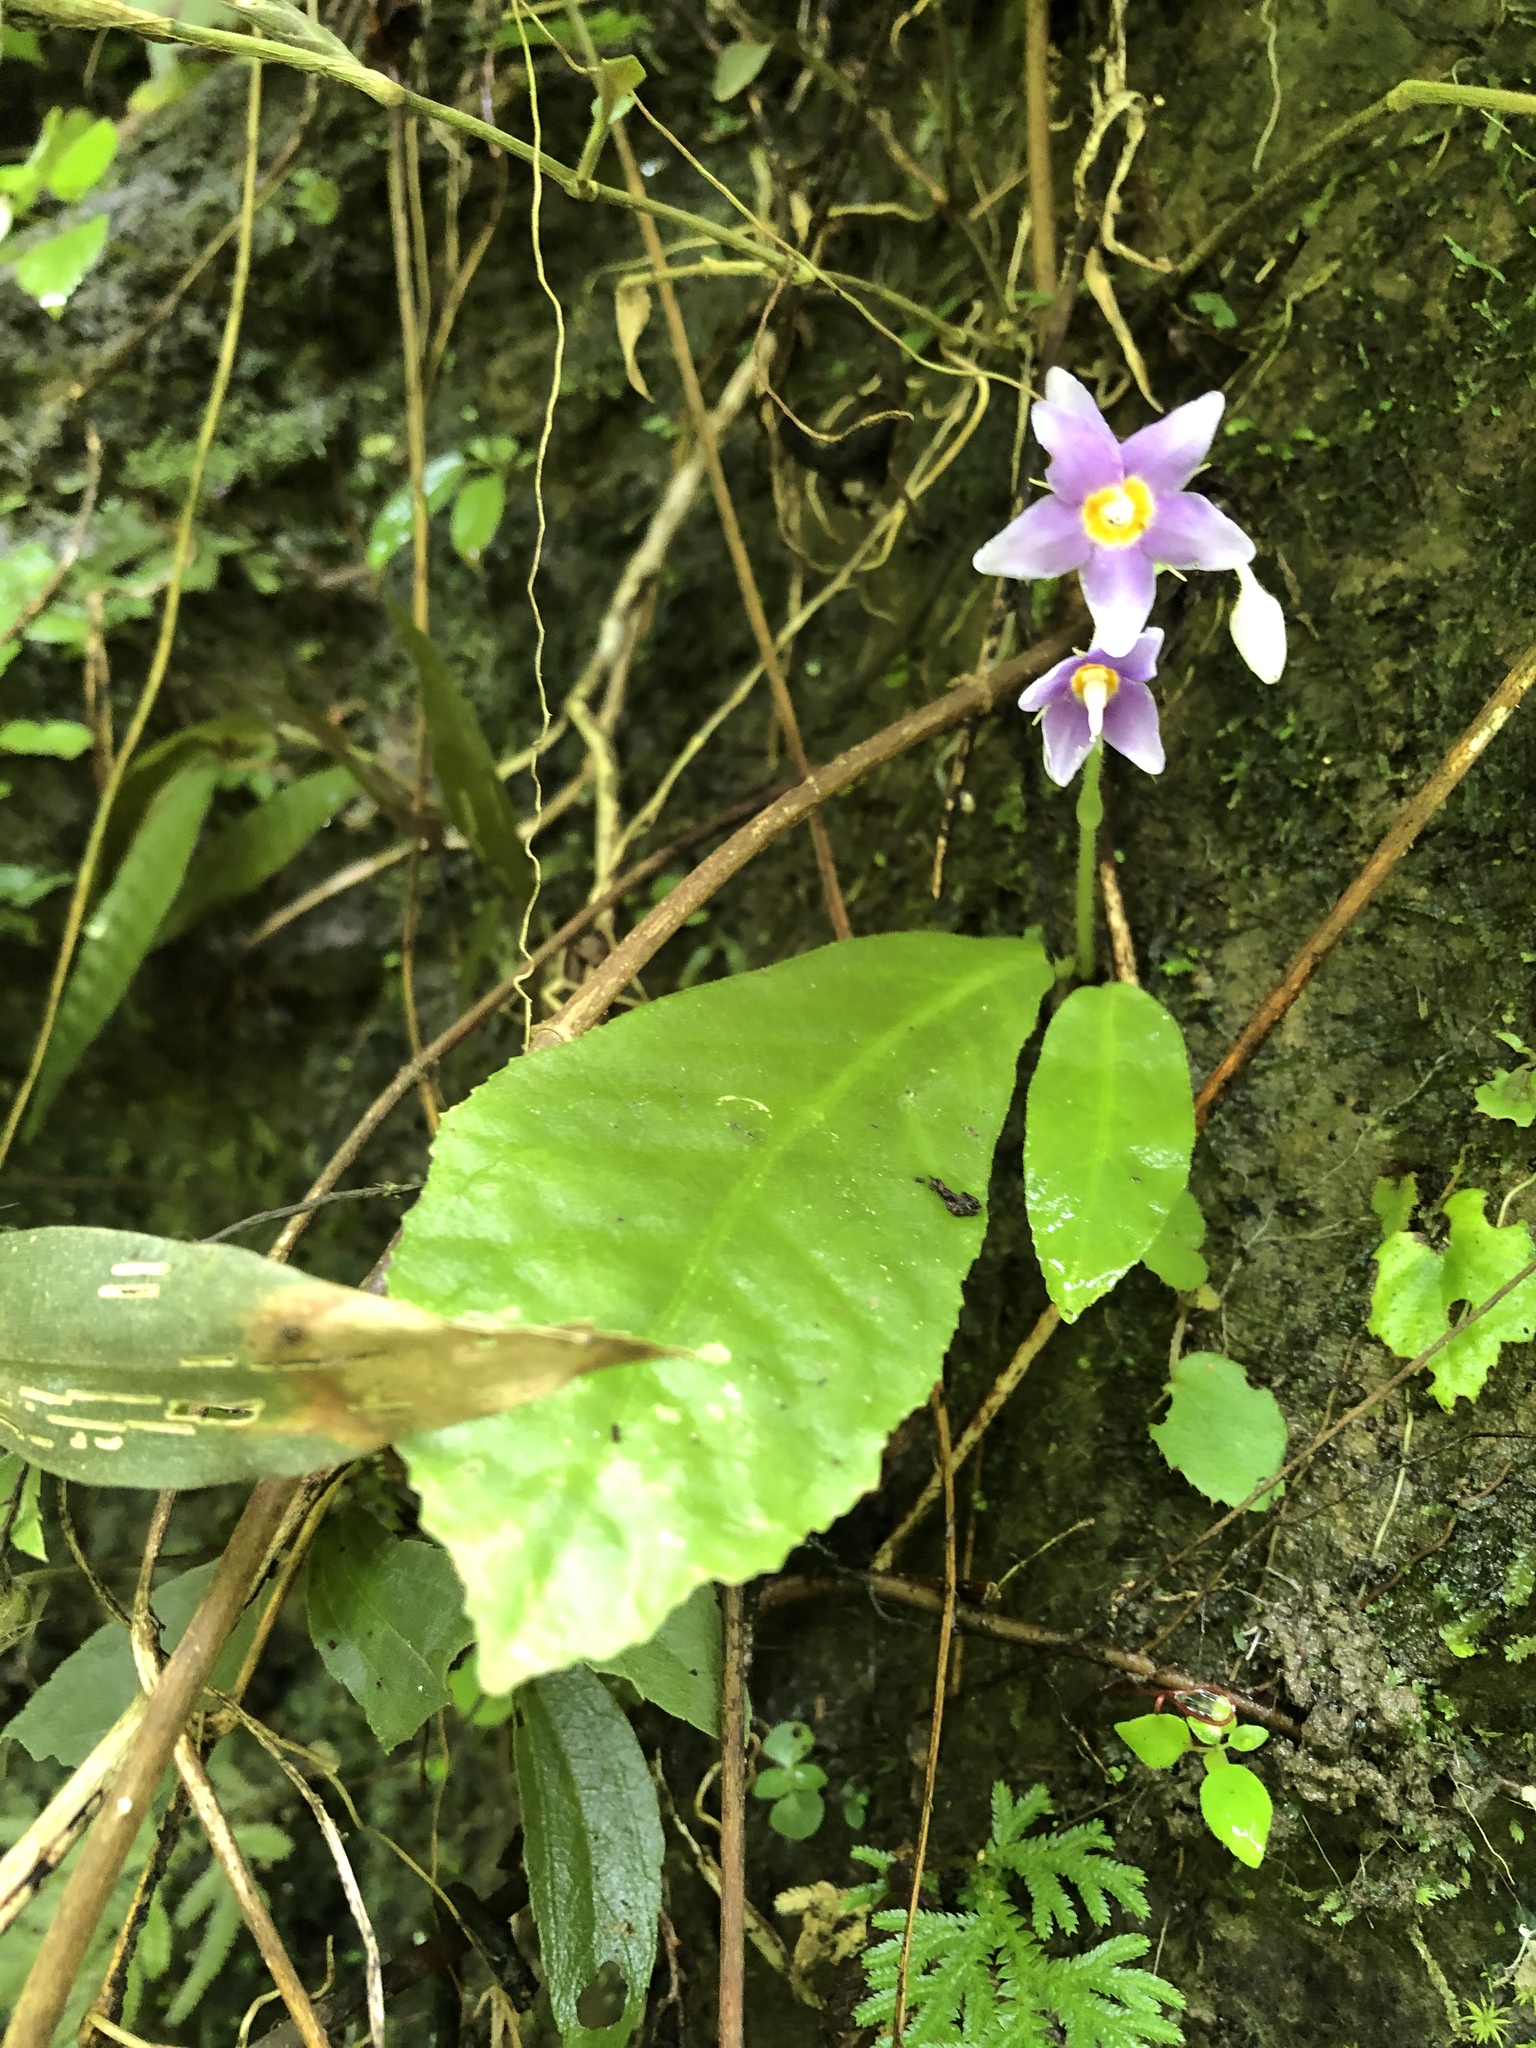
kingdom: Plantae
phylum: Tracheophyta
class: Magnoliopsida
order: Lamiales
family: Gesneriaceae
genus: Conandron
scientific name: Conandron ramondioides
